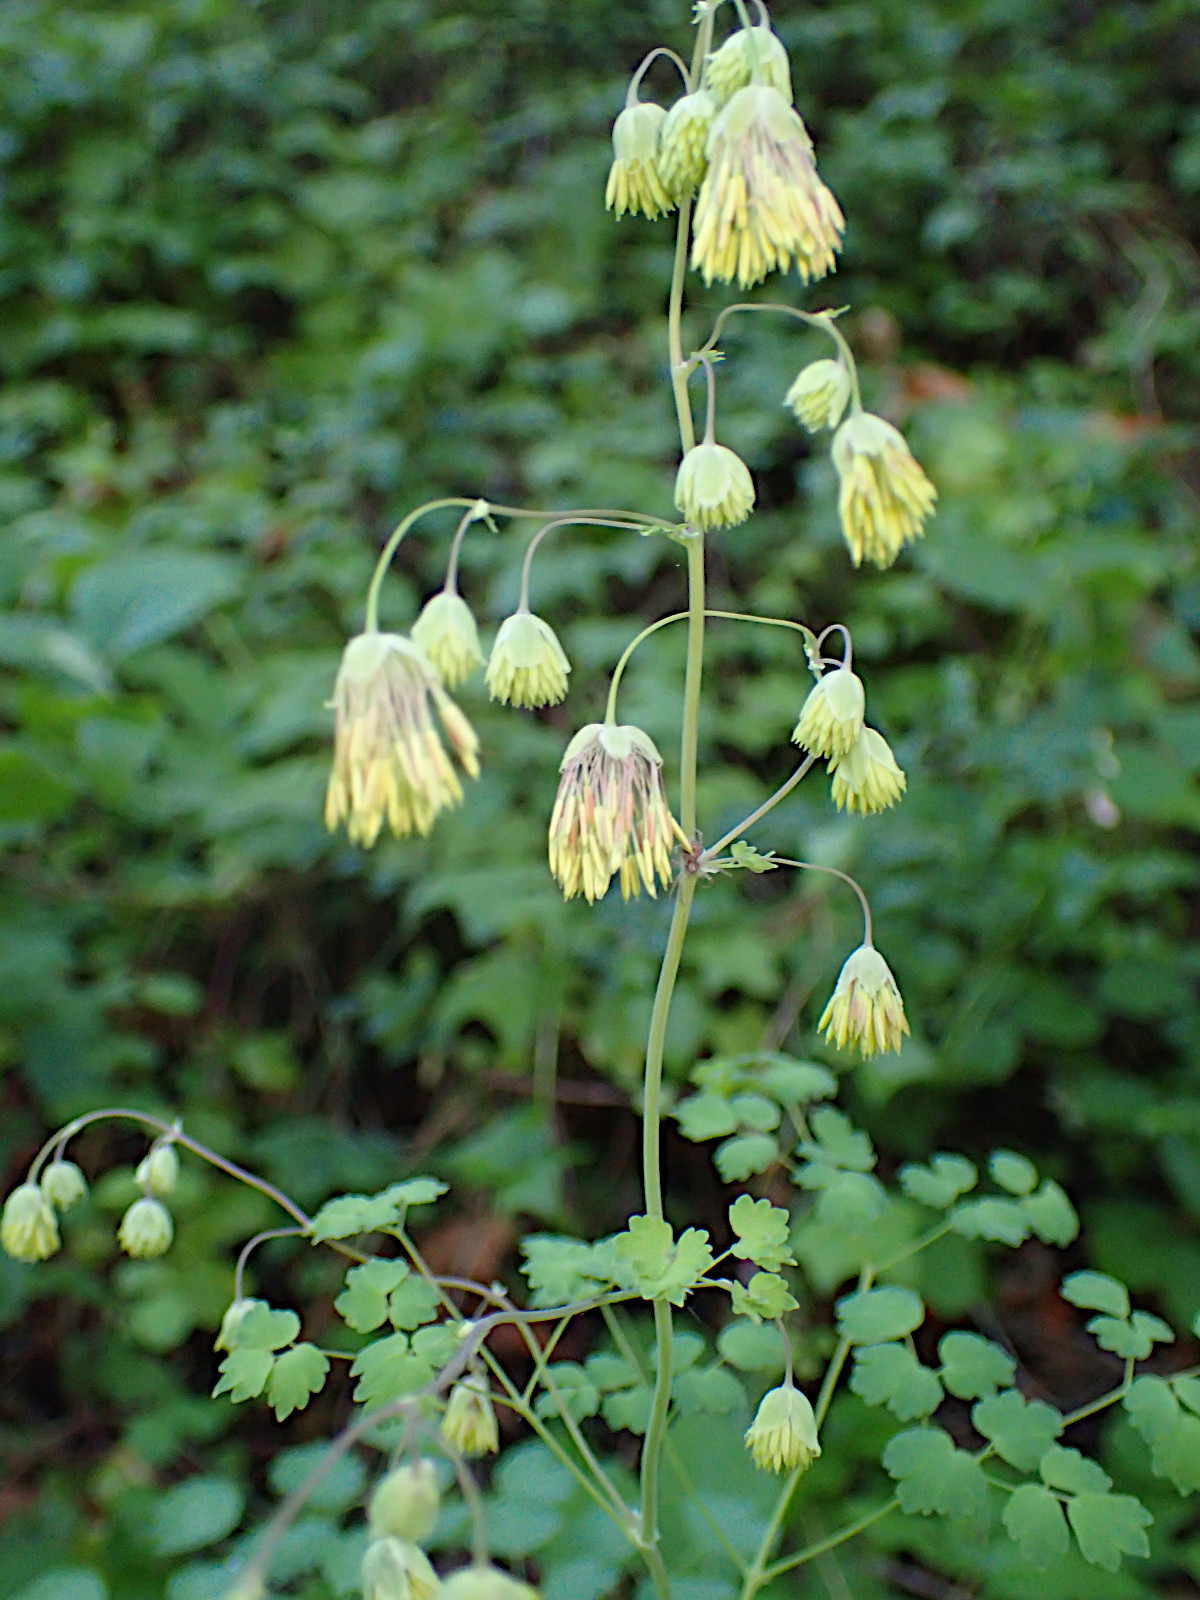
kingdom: Plantae
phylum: Tracheophyta
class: Magnoliopsida
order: Ranunculales
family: Ranunculaceae
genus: Thalictrum
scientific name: Thalictrum fendleri
